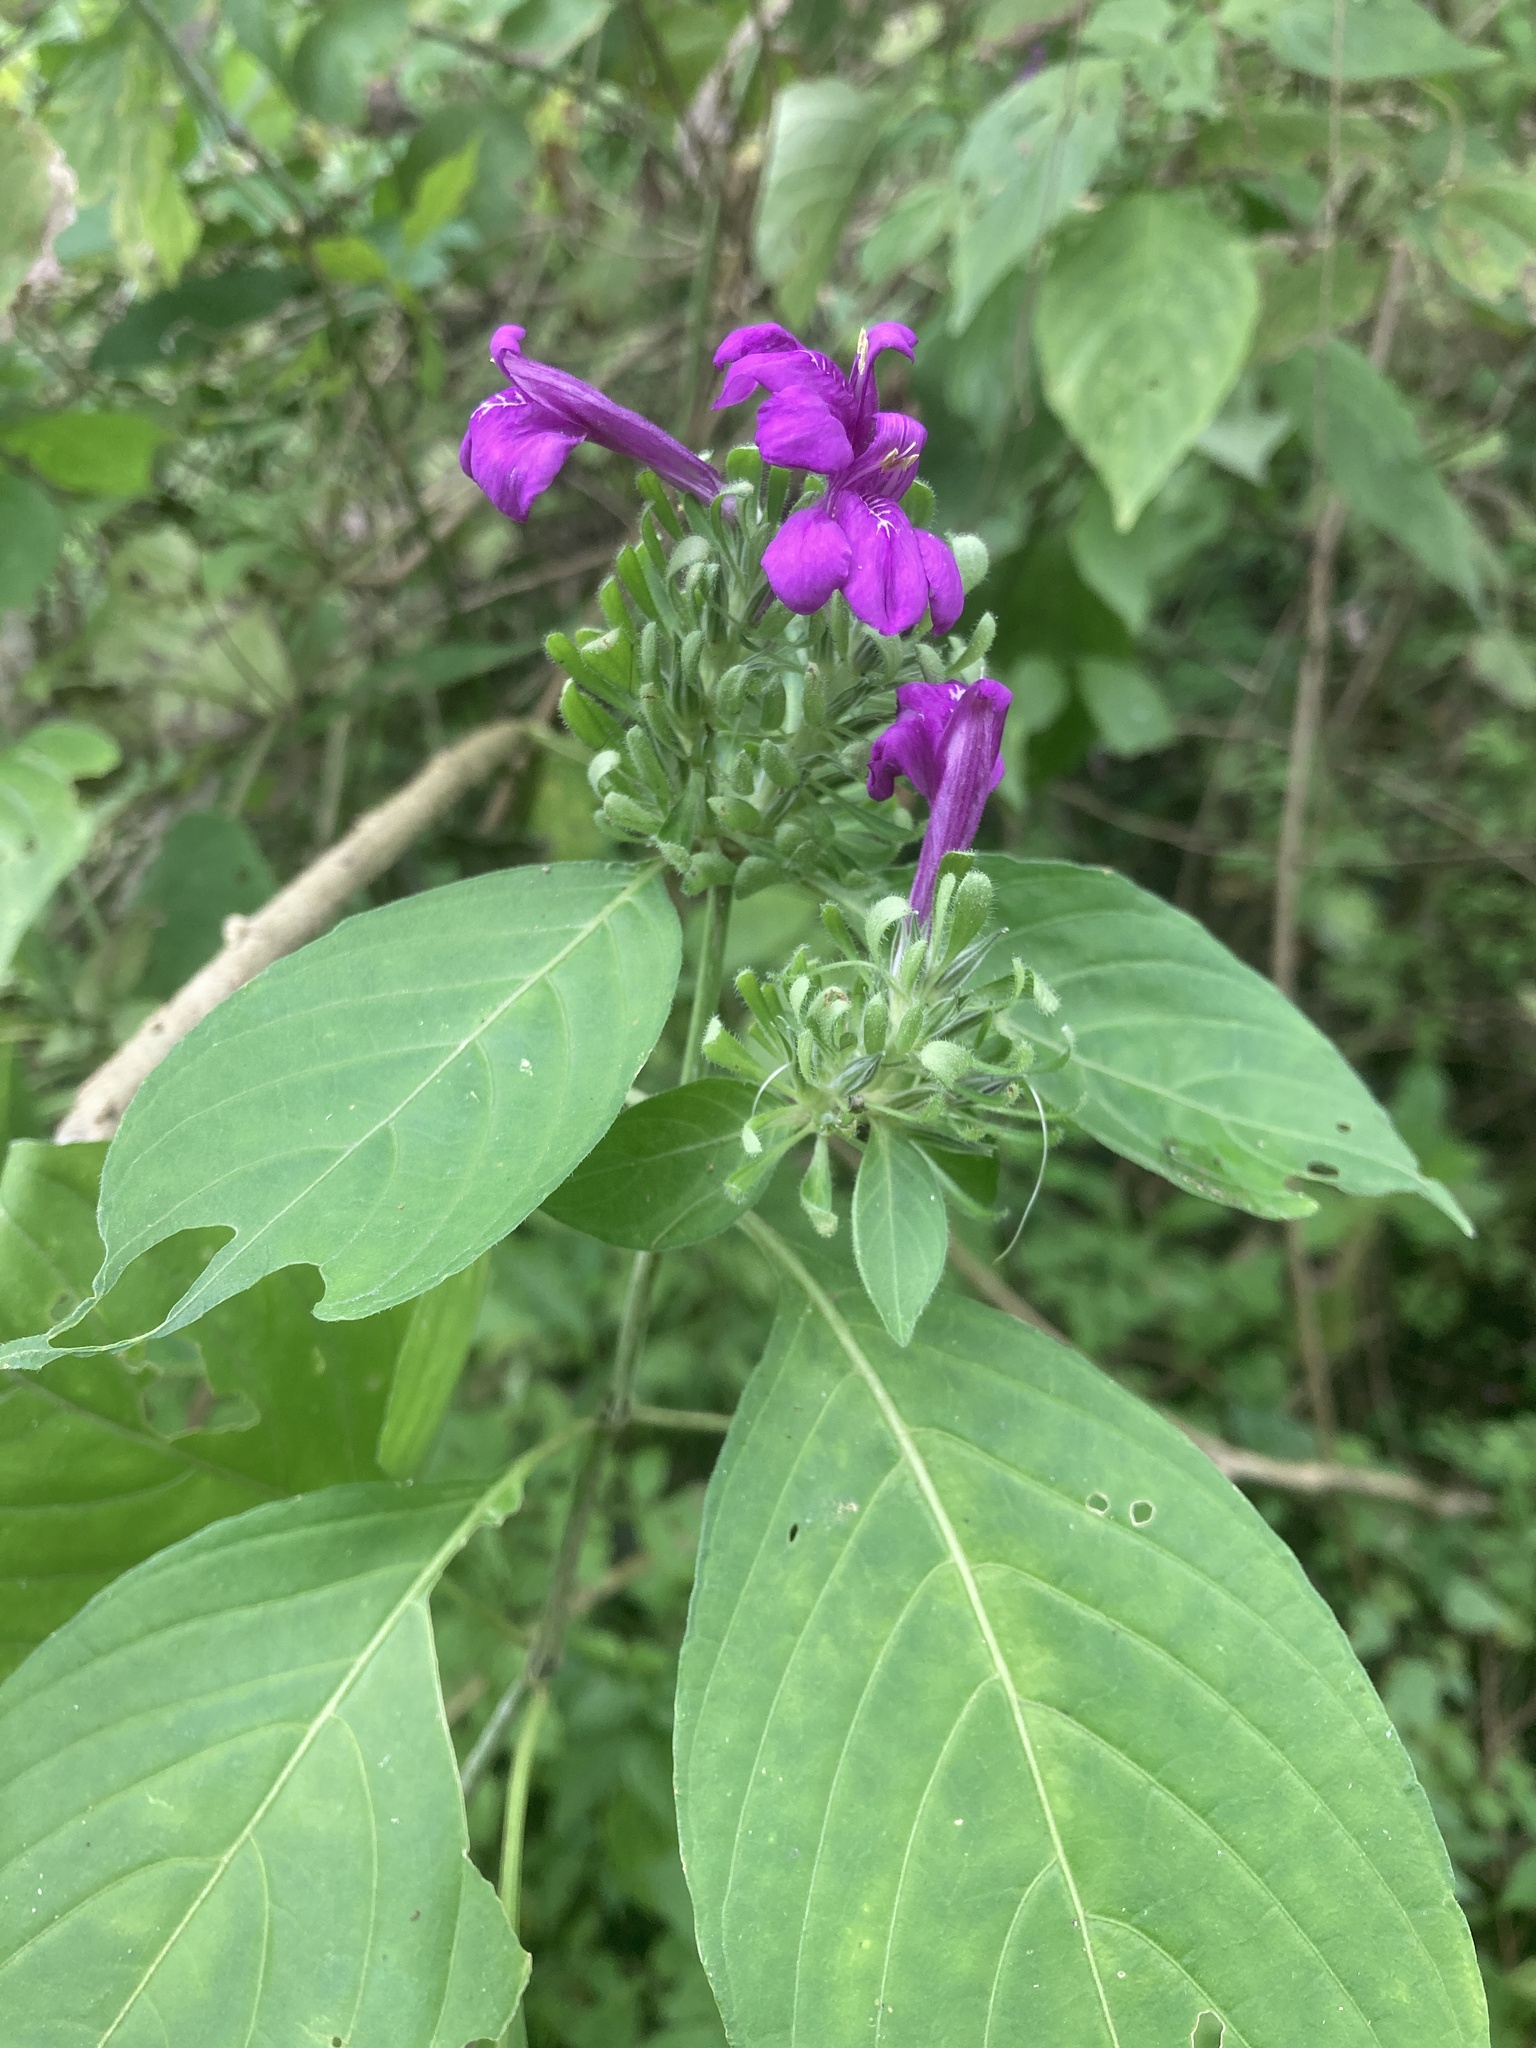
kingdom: Plantae
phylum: Tracheophyta
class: Magnoliopsida
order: Lamiales
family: Acanthaceae
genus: Justicia
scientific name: Justicia carthaginensis
